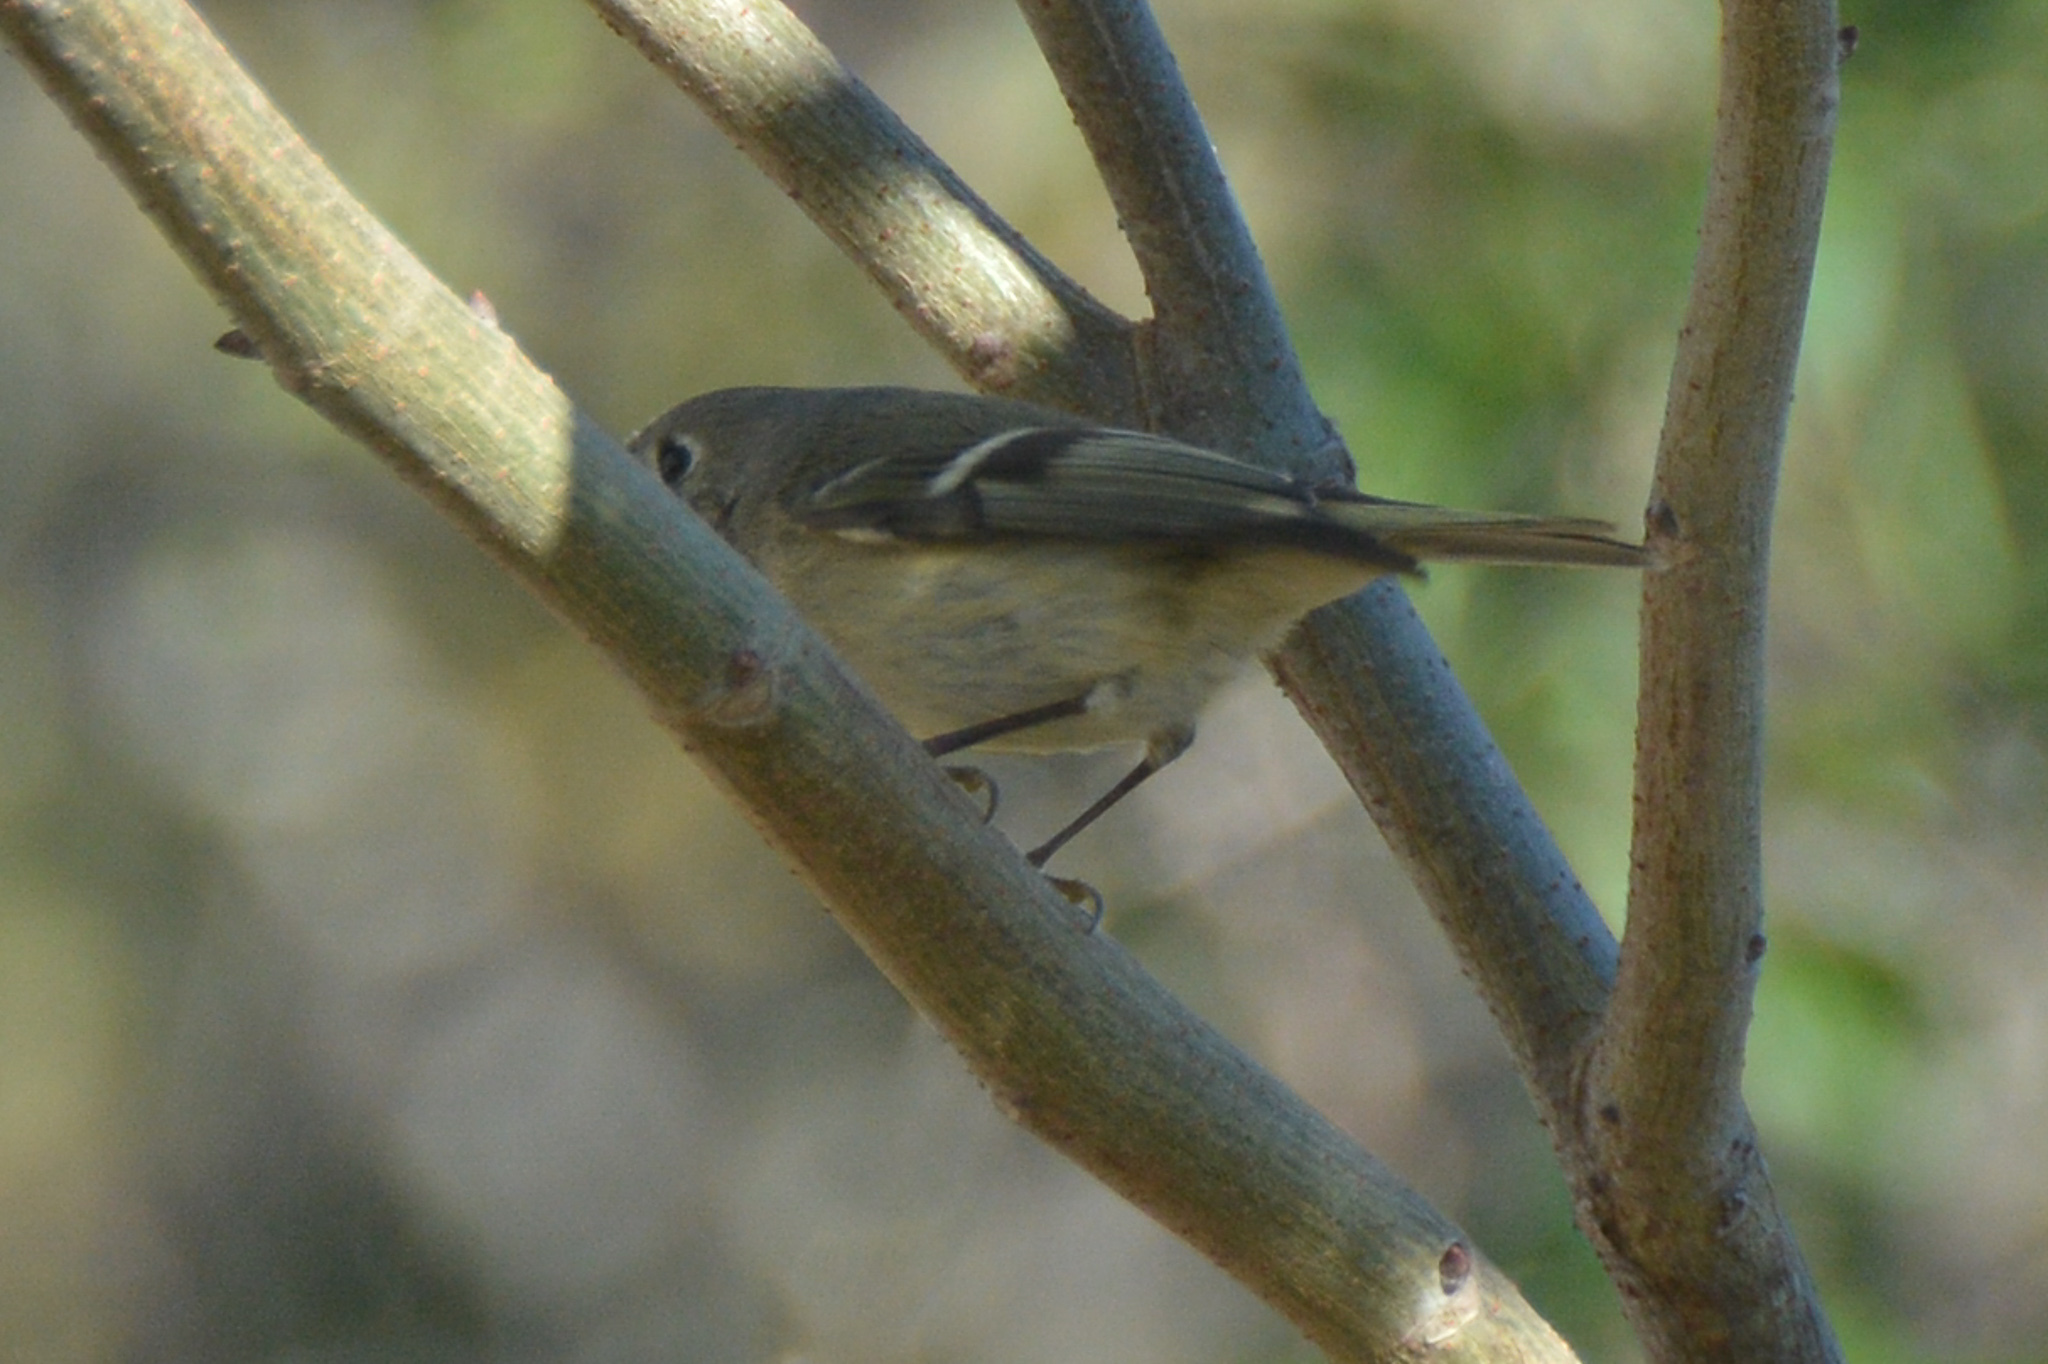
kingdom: Animalia
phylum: Chordata
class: Aves
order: Passeriformes
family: Regulidae
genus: Regulus
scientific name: Regulus calendula
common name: Ruby-crowned kinglet
